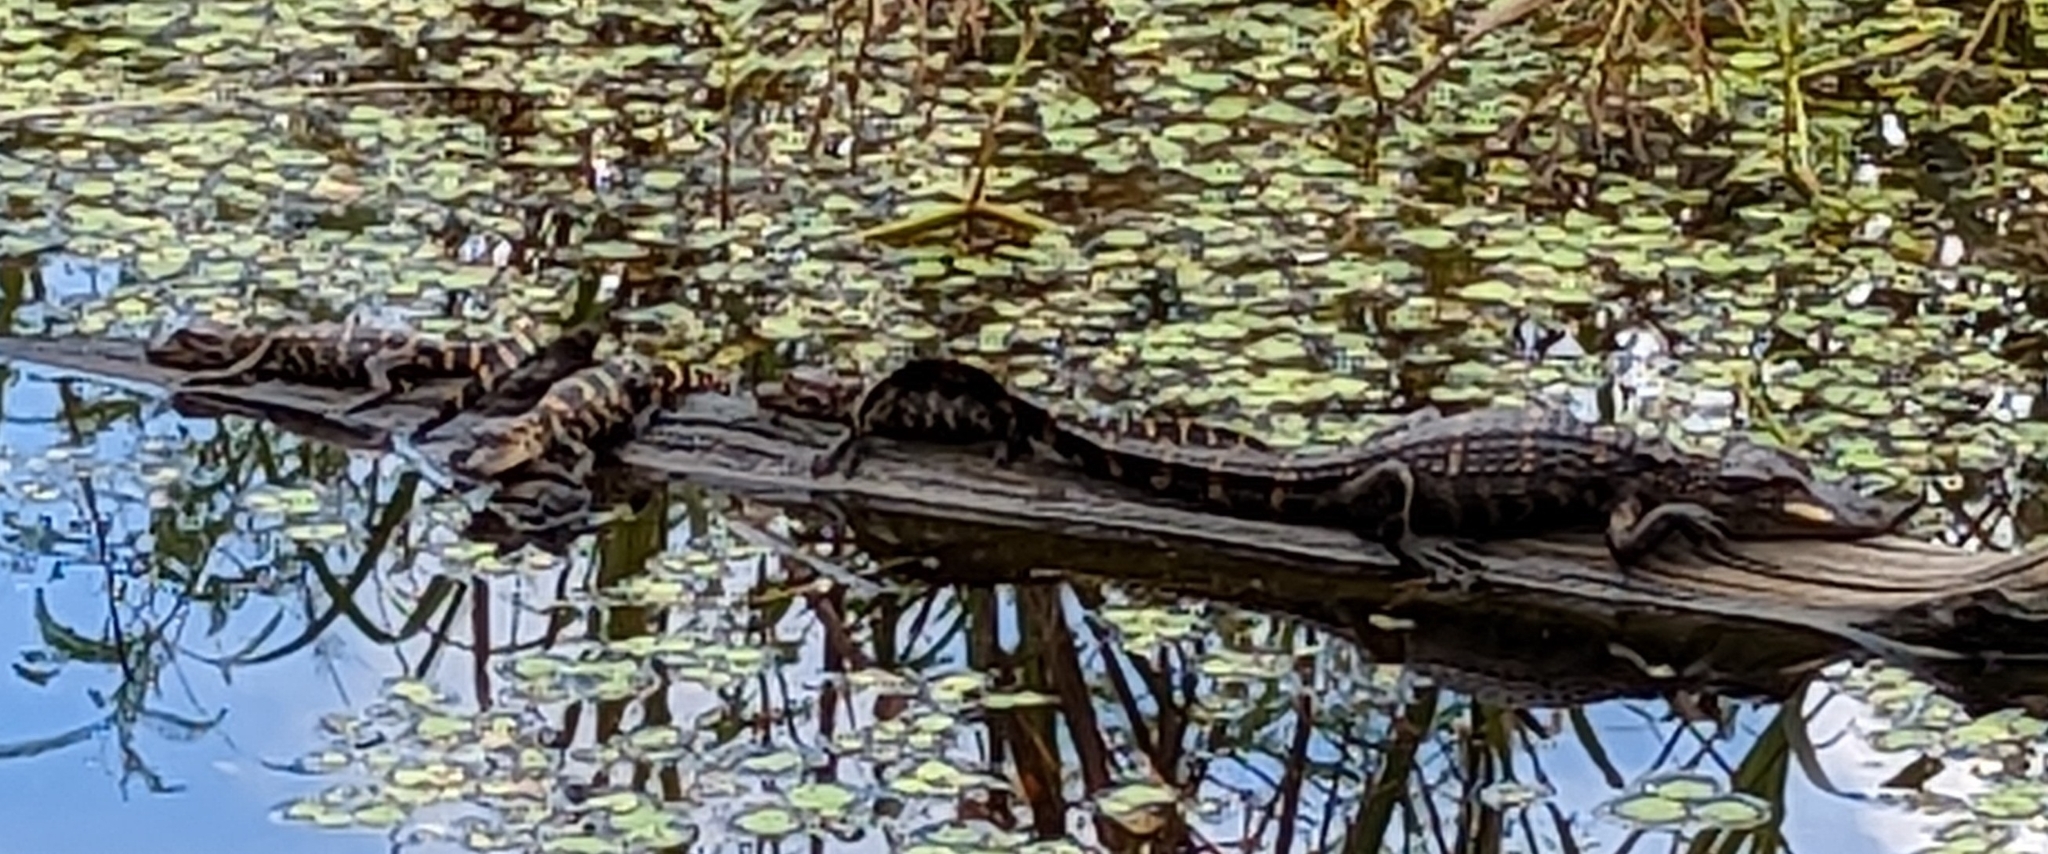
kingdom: Animalia
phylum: Chordata
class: Crocodylia
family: Alligatoridae
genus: Alligator
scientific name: Alligator mississippiensis
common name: American alligator
